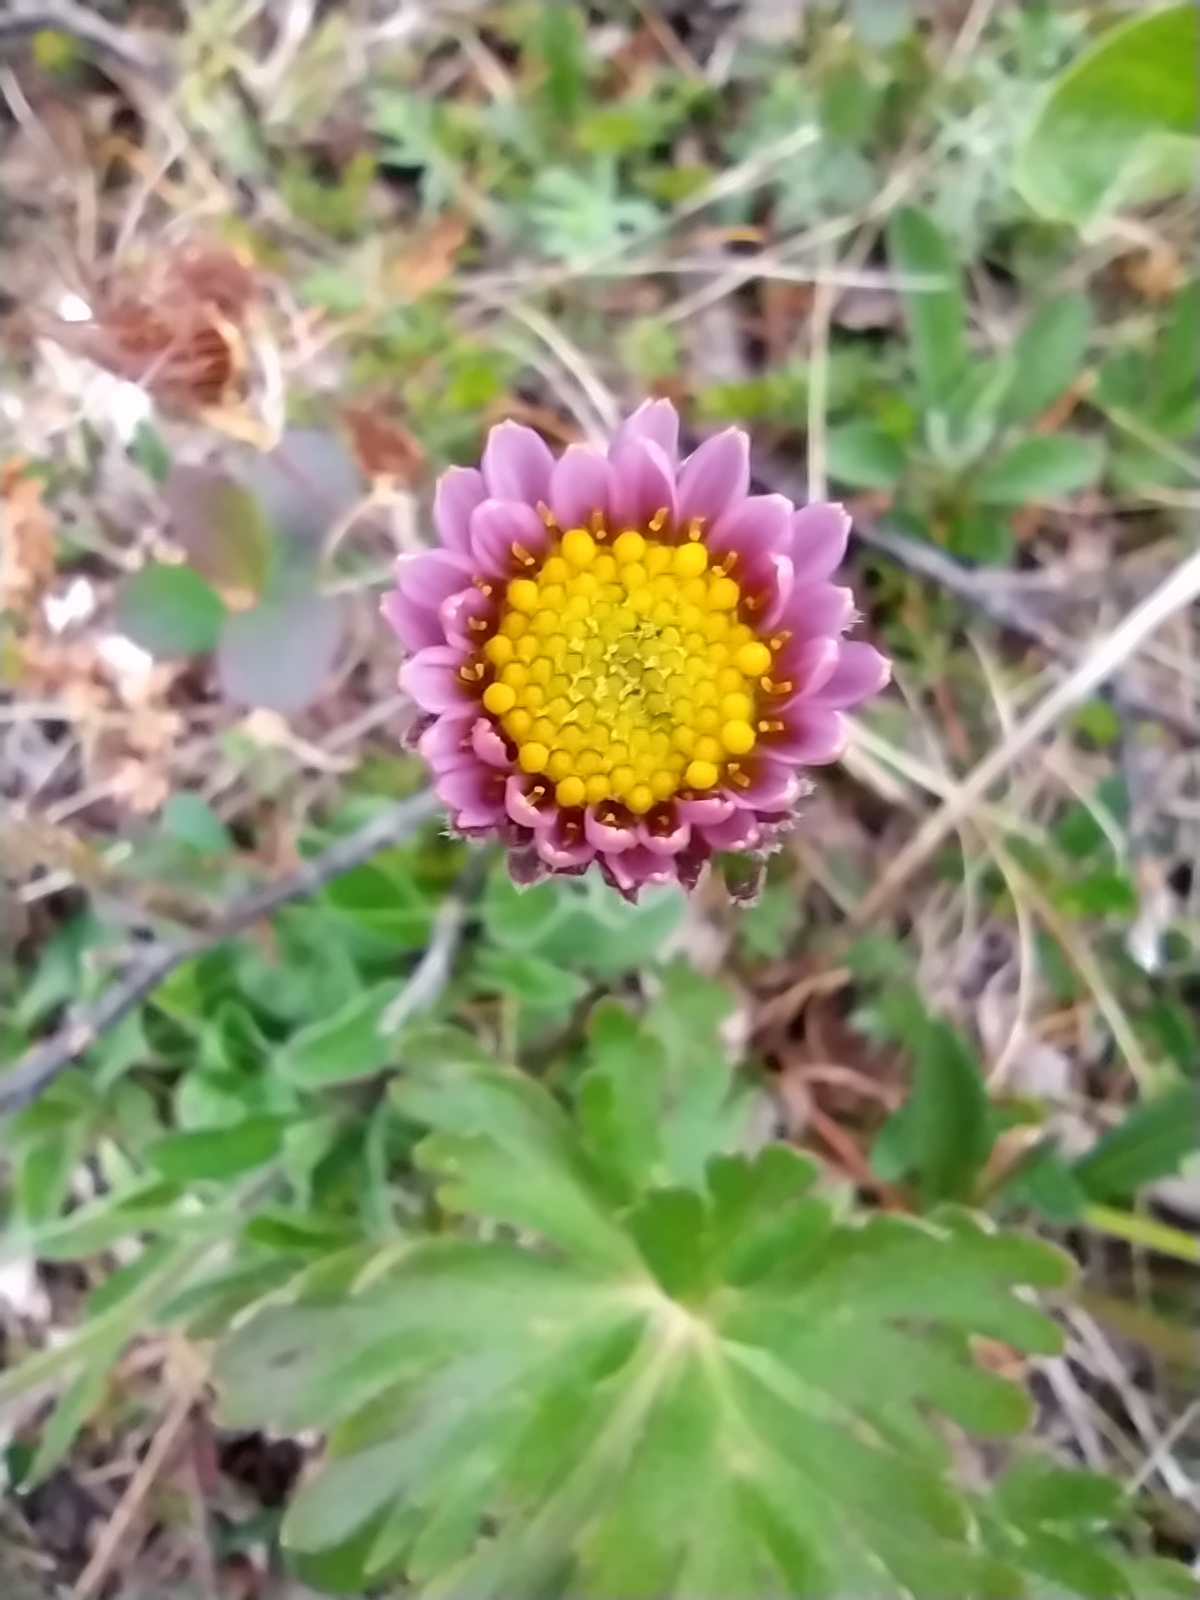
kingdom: Plantae
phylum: Tracheophyta
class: Magnoliopsida
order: Asterales
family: Asteraceae
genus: Aster
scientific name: Aster alpinus
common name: Alpine aster
